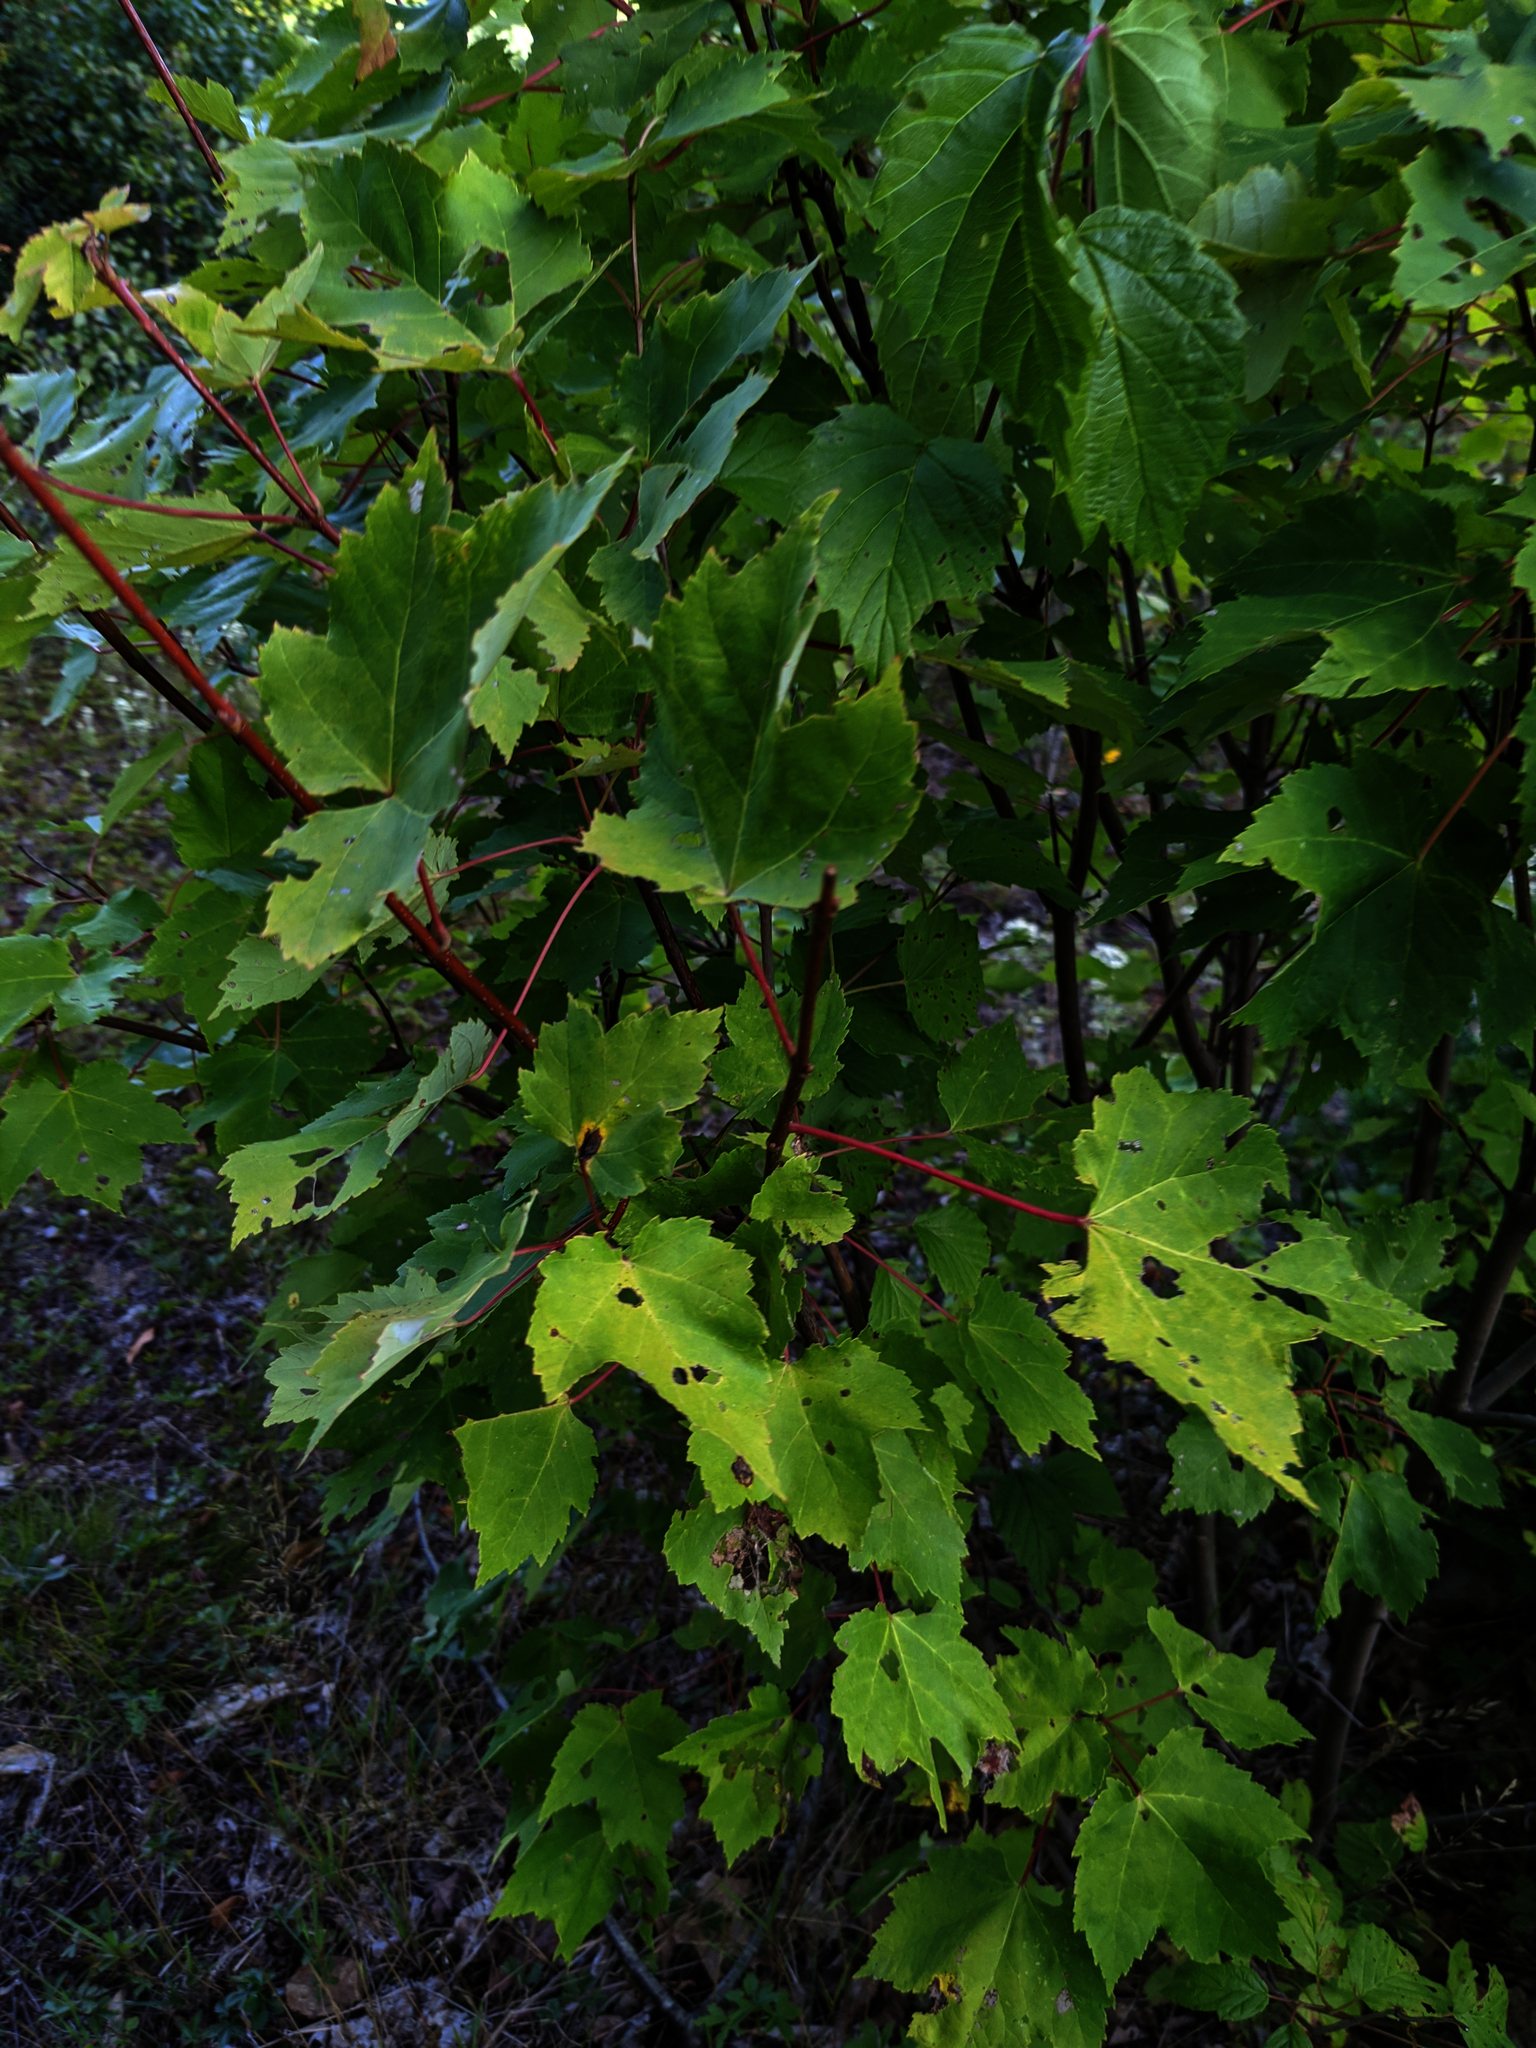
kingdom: Plantae
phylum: Tracheophyta
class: Magnoliopsida
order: Sapindales
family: Sapindaceae
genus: Acer
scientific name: Acer rubrum
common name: Red maple
